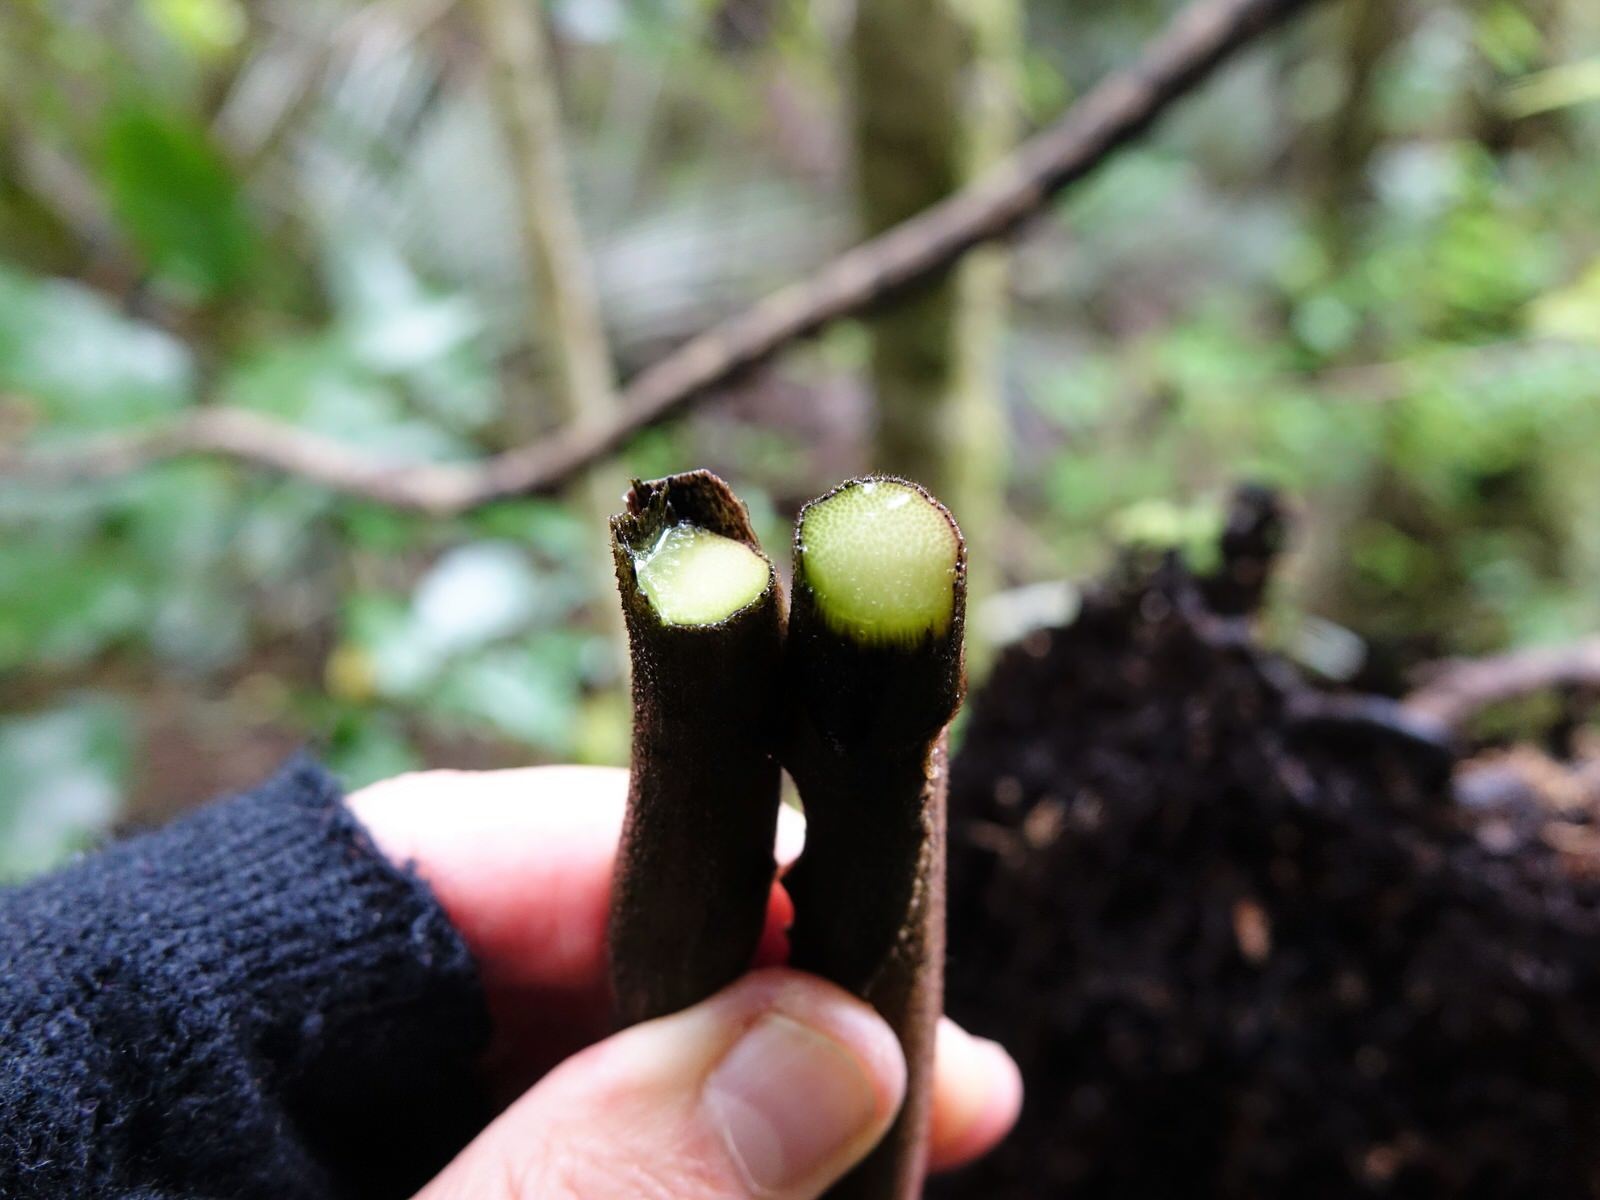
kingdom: Plantae
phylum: Tracheophyta
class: Liliopsida
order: Liliales
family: Ripogonaceae
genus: Ripogonum
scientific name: Ripogonum scandens
